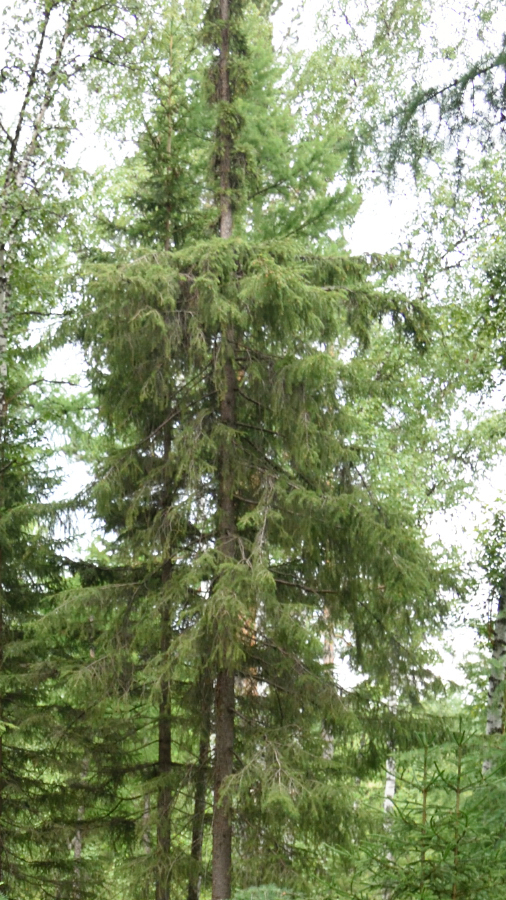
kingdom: Plantae
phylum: Tracheophyta
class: Pinopsida
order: Pinales
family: Pinaceae
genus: Picea
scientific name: Picea obovata
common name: Siberian spruce
